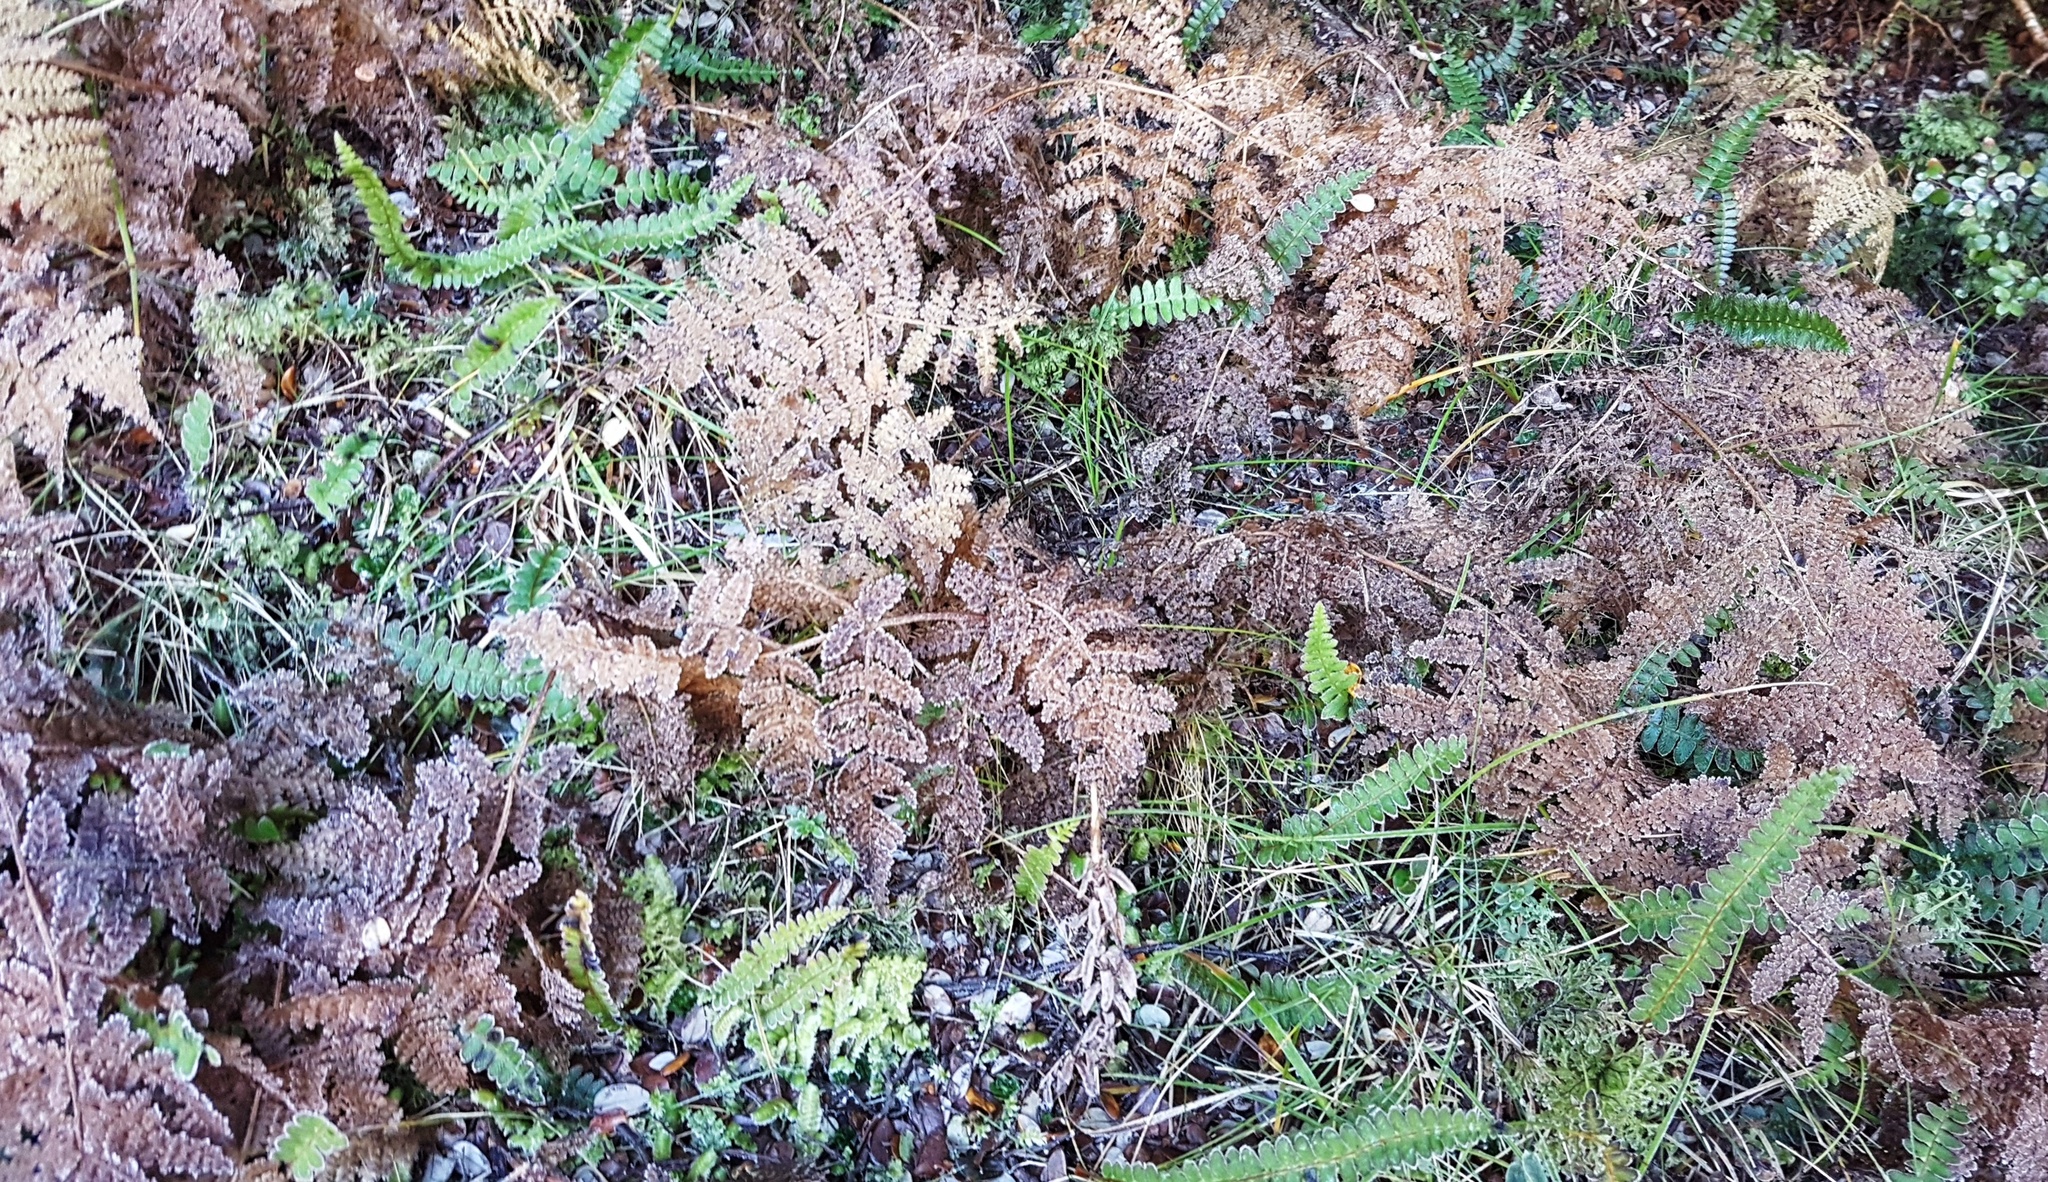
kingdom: Plantae
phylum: Tracheophyta
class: Polypodiopsida
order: Polypodiales
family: Dennstaedtiaceae
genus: Hypolepis
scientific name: Hypolepis millefolium
